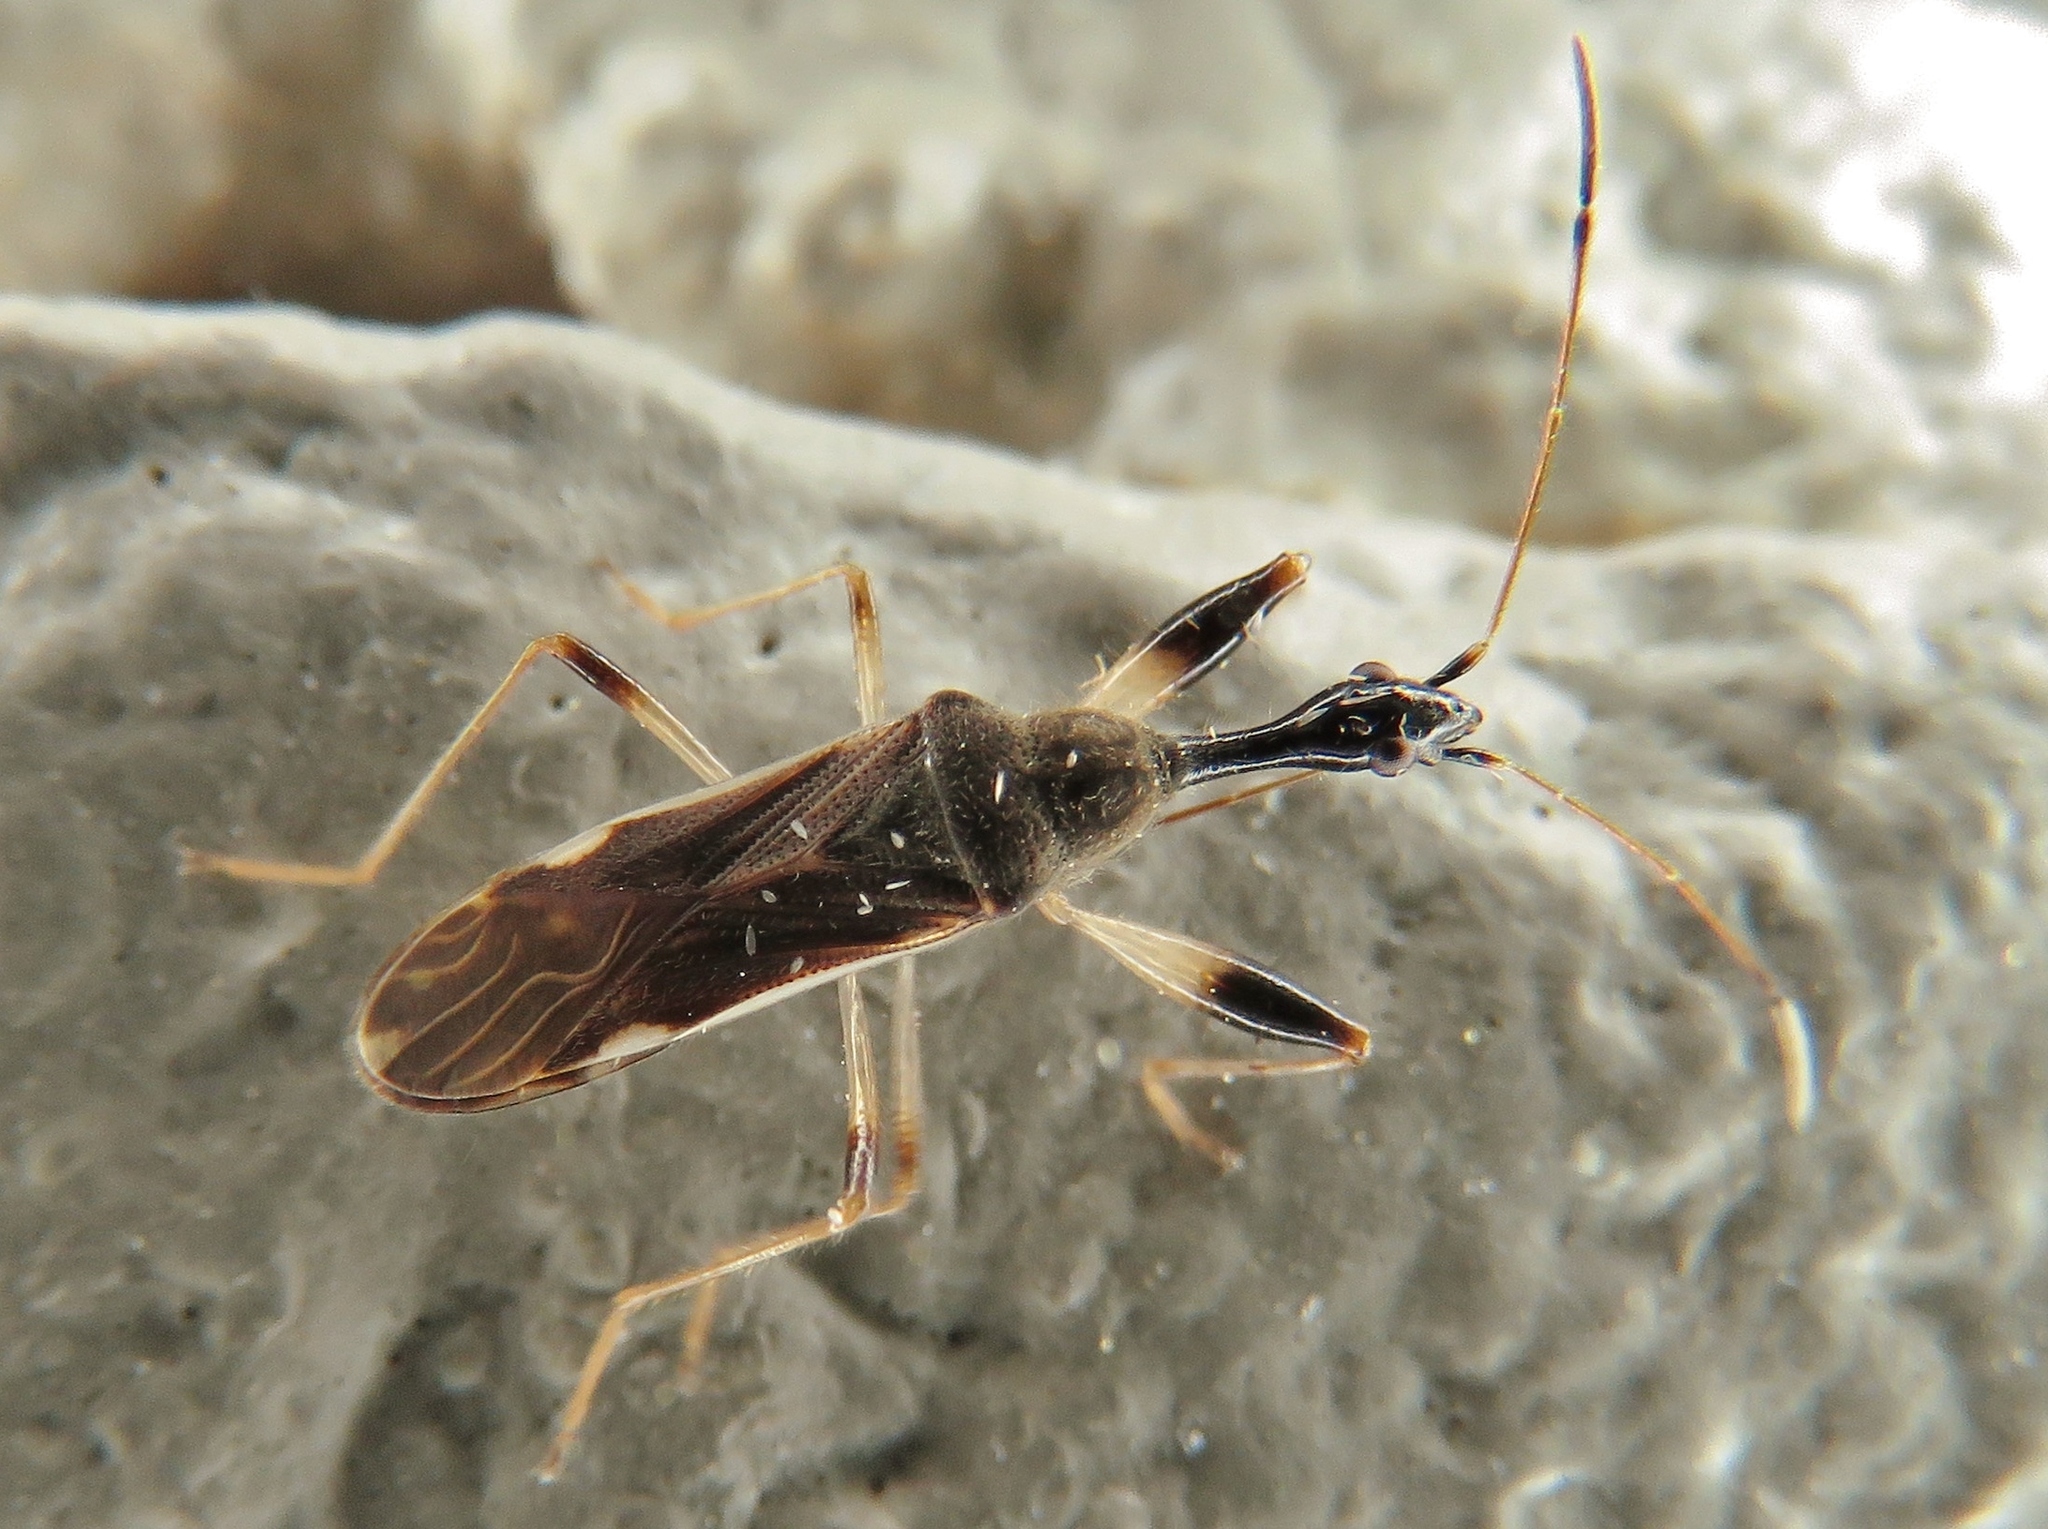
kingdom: Animalia
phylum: Arthropoda
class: Insecta
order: Hemiptera
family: Rhyparochromidae
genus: Myodocha
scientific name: Myodocha serripes
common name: Long-necked seed bug
